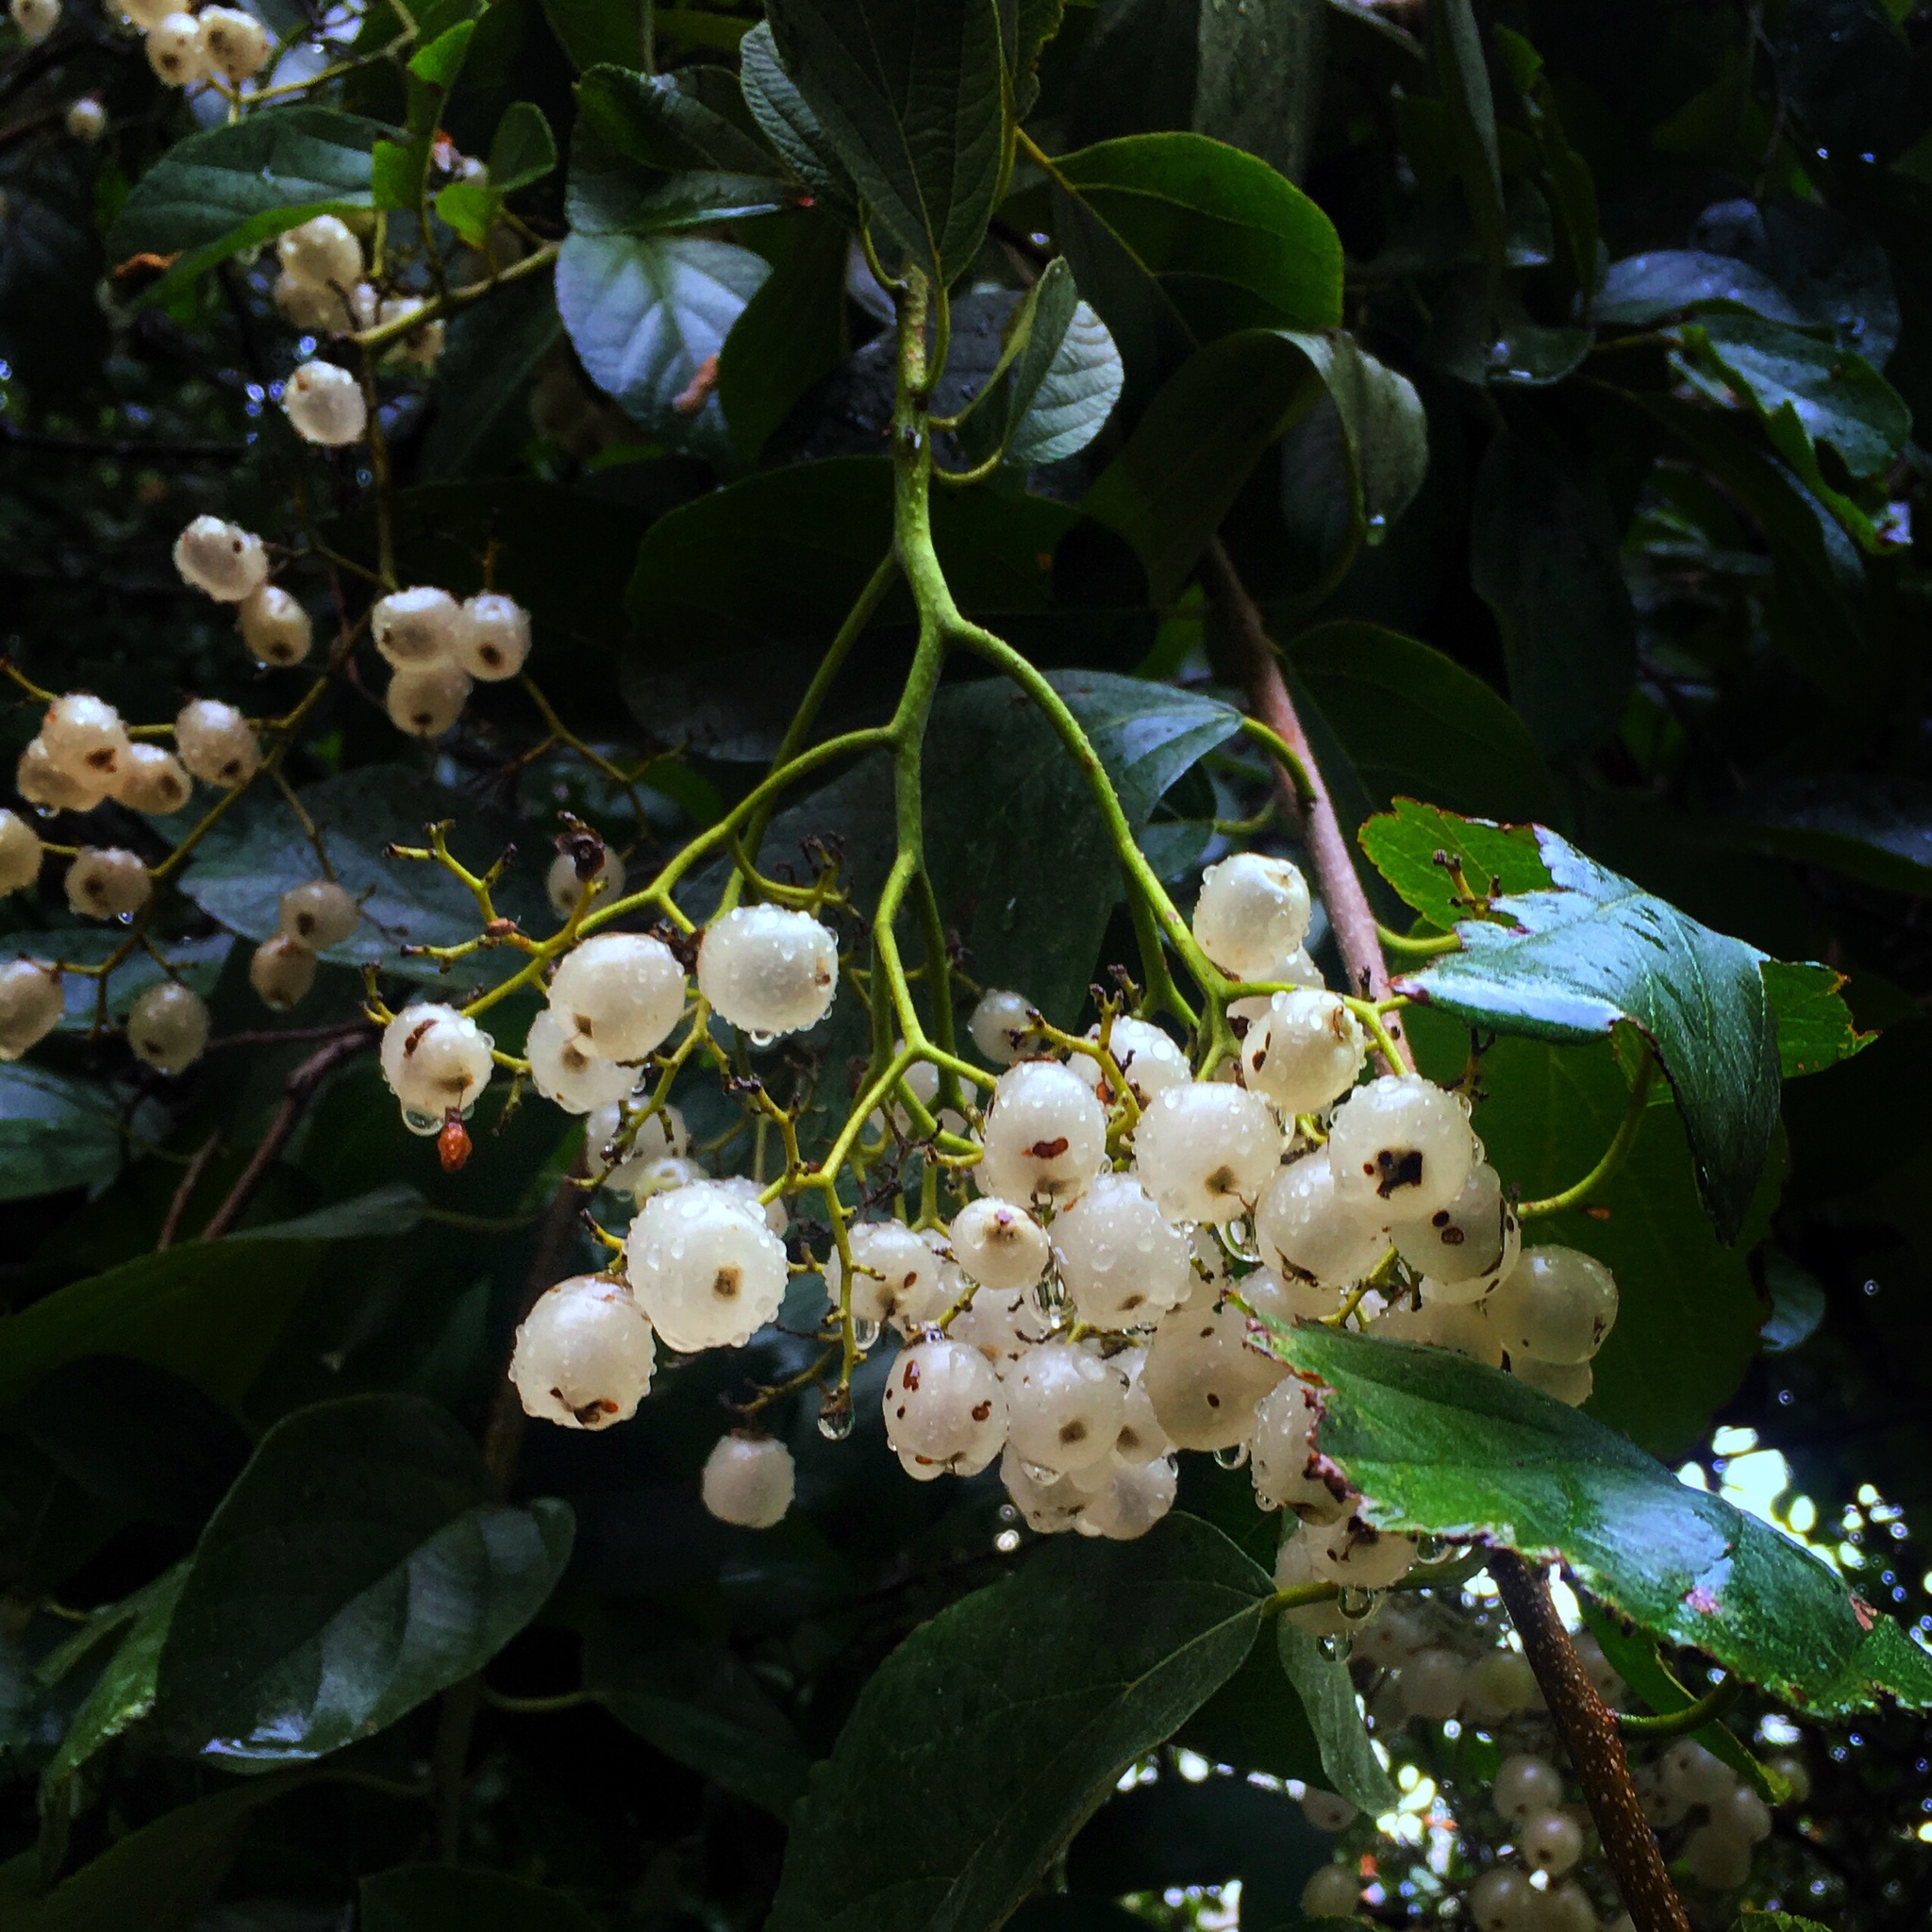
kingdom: Plantae
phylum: Tracheophyta
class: Magnoliopsida
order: Boraginales
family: Cordiaceae
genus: Cordia
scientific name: Cordia dentata
